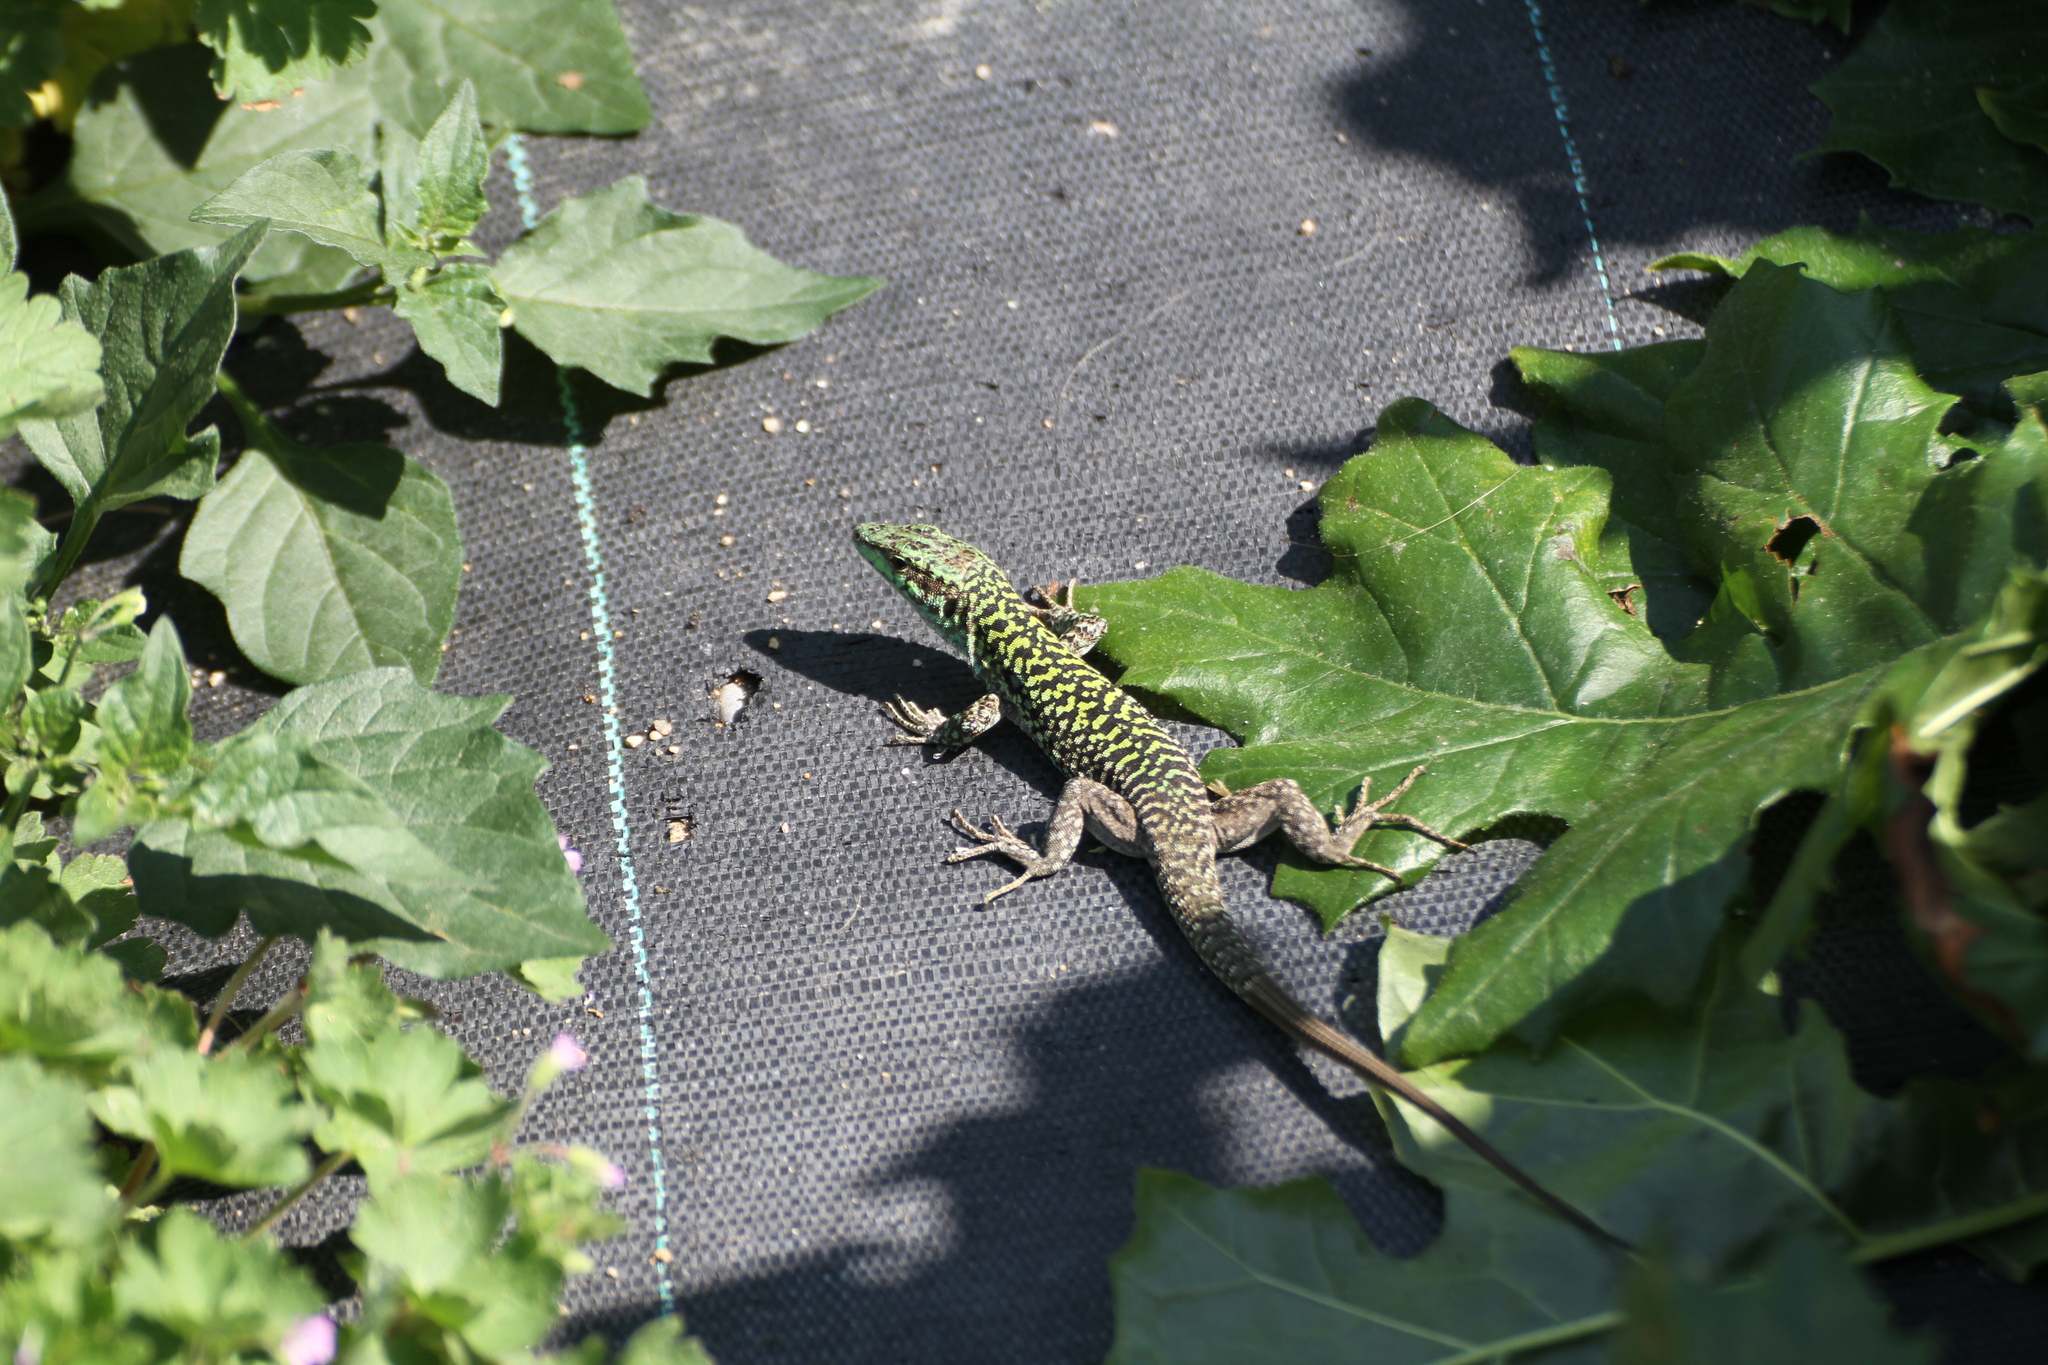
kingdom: Animalia
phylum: Chordata
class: Squamata
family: Lacertidae
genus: Podarcis
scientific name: Podarcis siculus
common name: Italian wall lizard
